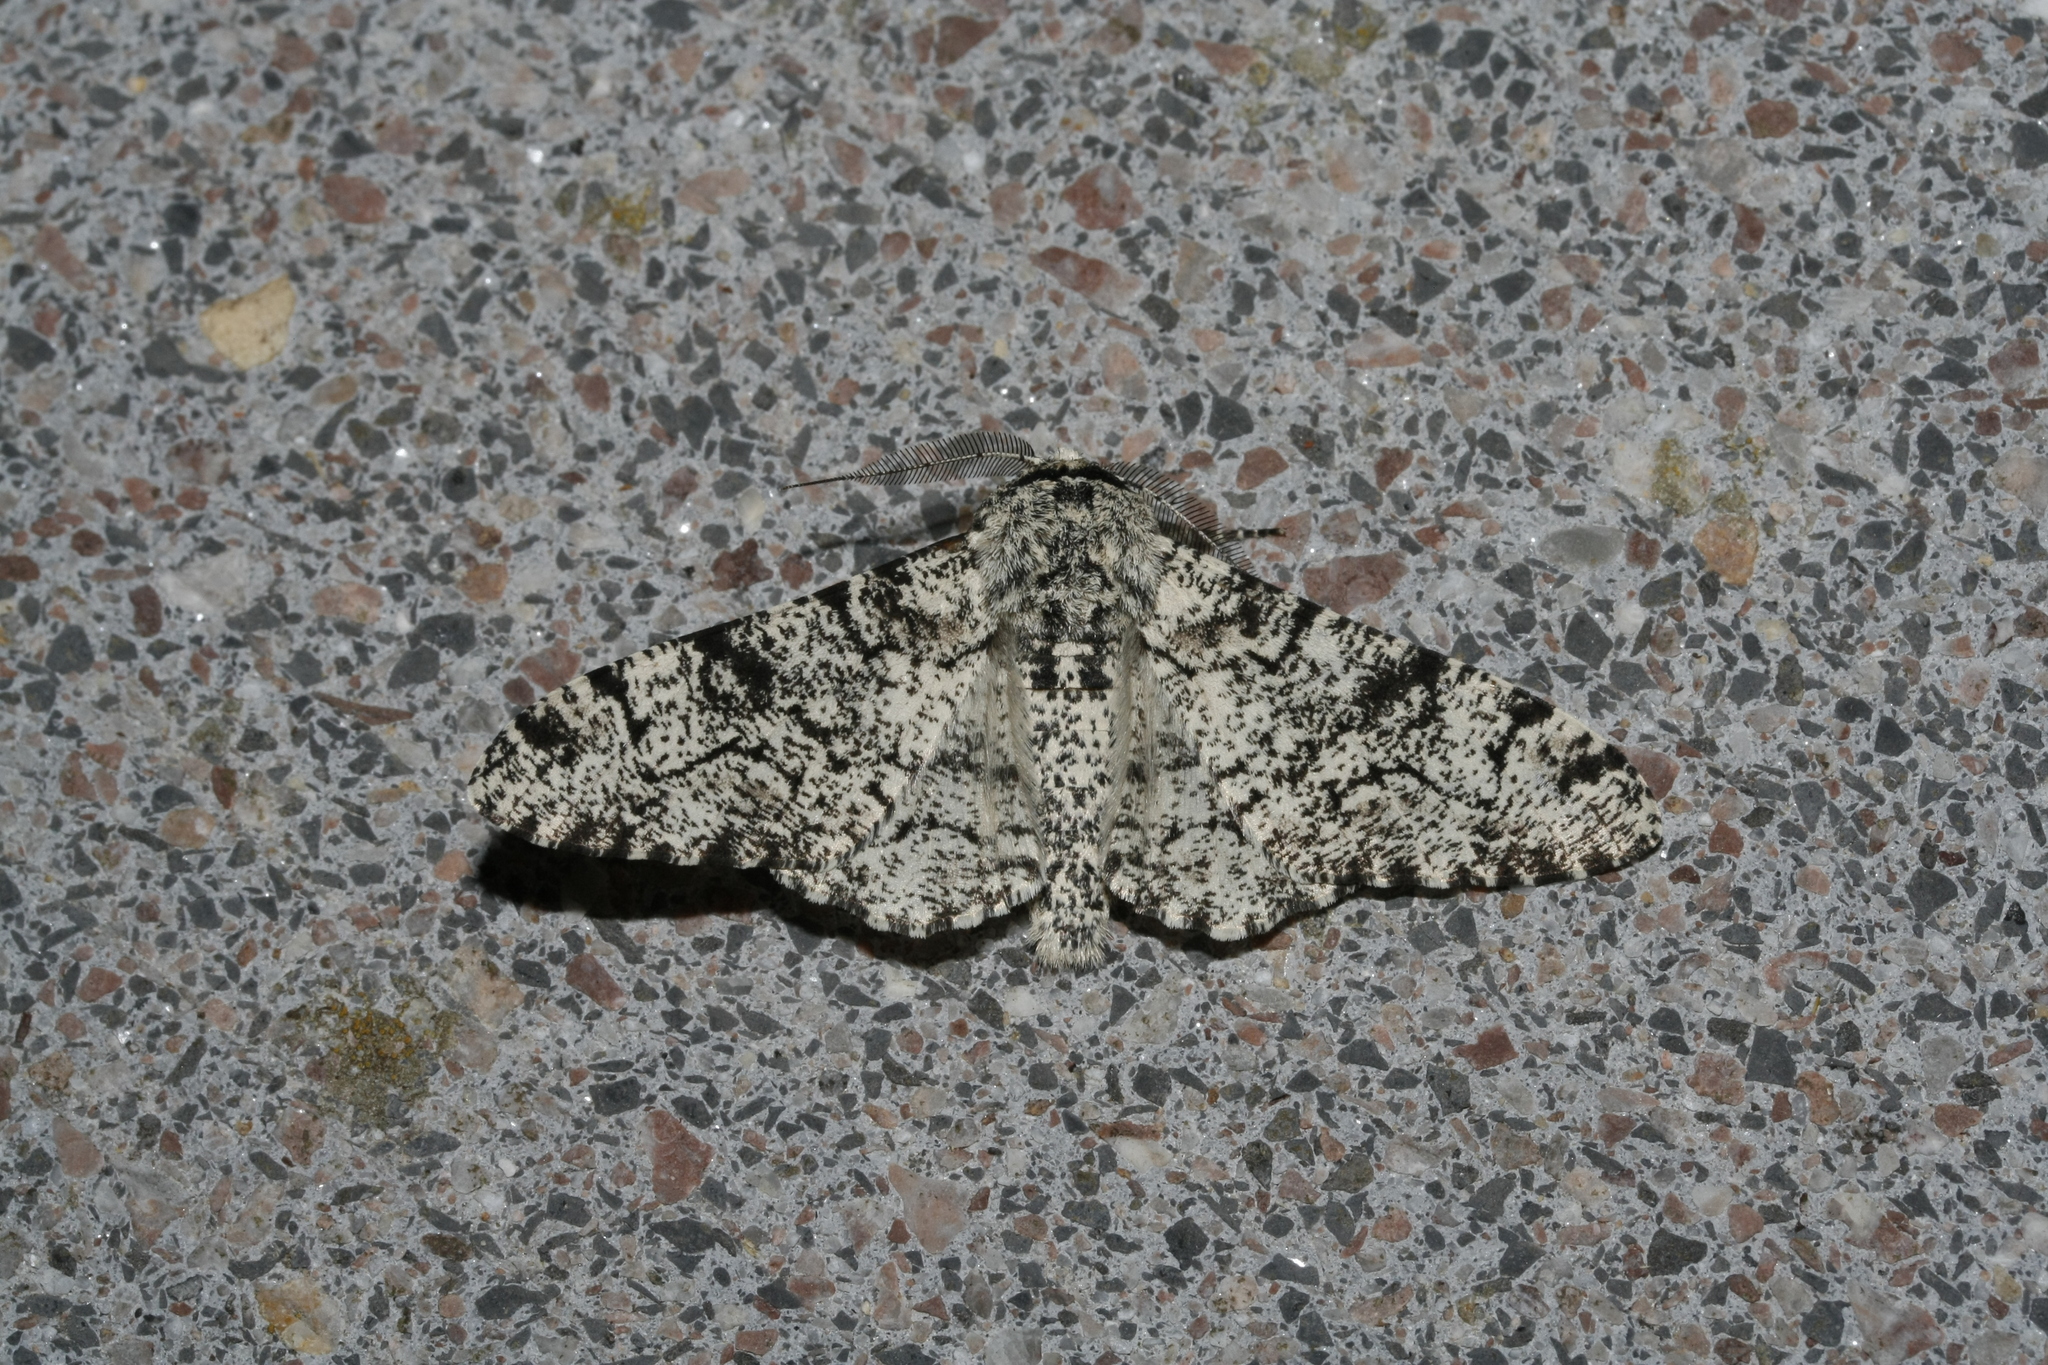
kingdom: Animalia
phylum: Arthropoda
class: Insecta
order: Lepidoptera
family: Geometridae
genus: Biston
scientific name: Biston betularia
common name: Peppered moth
